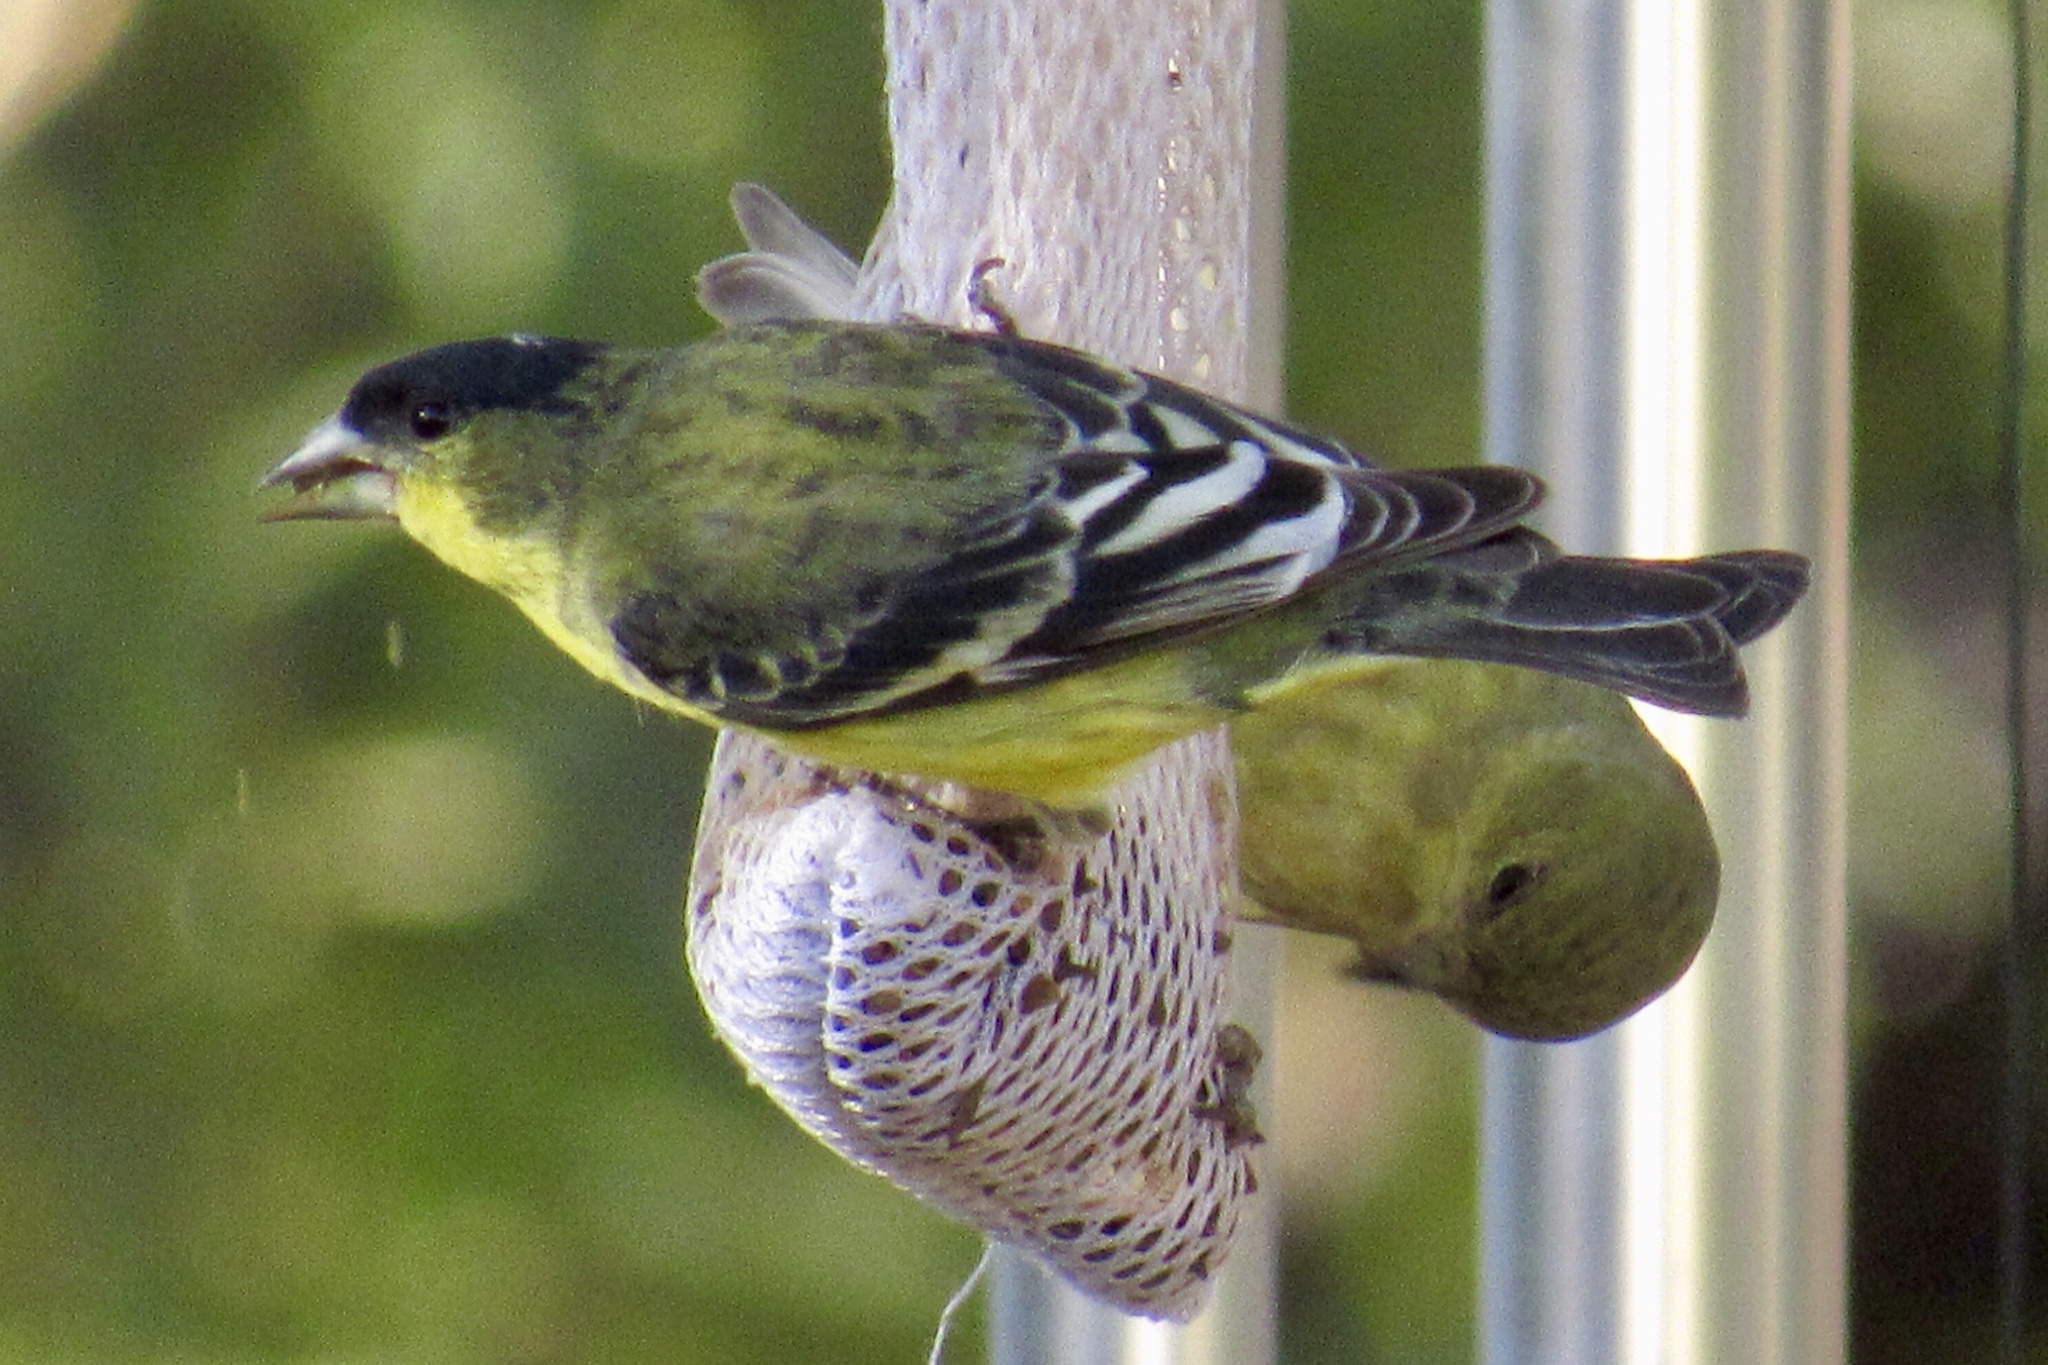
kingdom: Animalia
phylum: Chordata
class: Aves
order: Passeriformes
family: Fringillidae
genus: Spinus
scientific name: Spinus psaltria
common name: Lesser goldfinch
